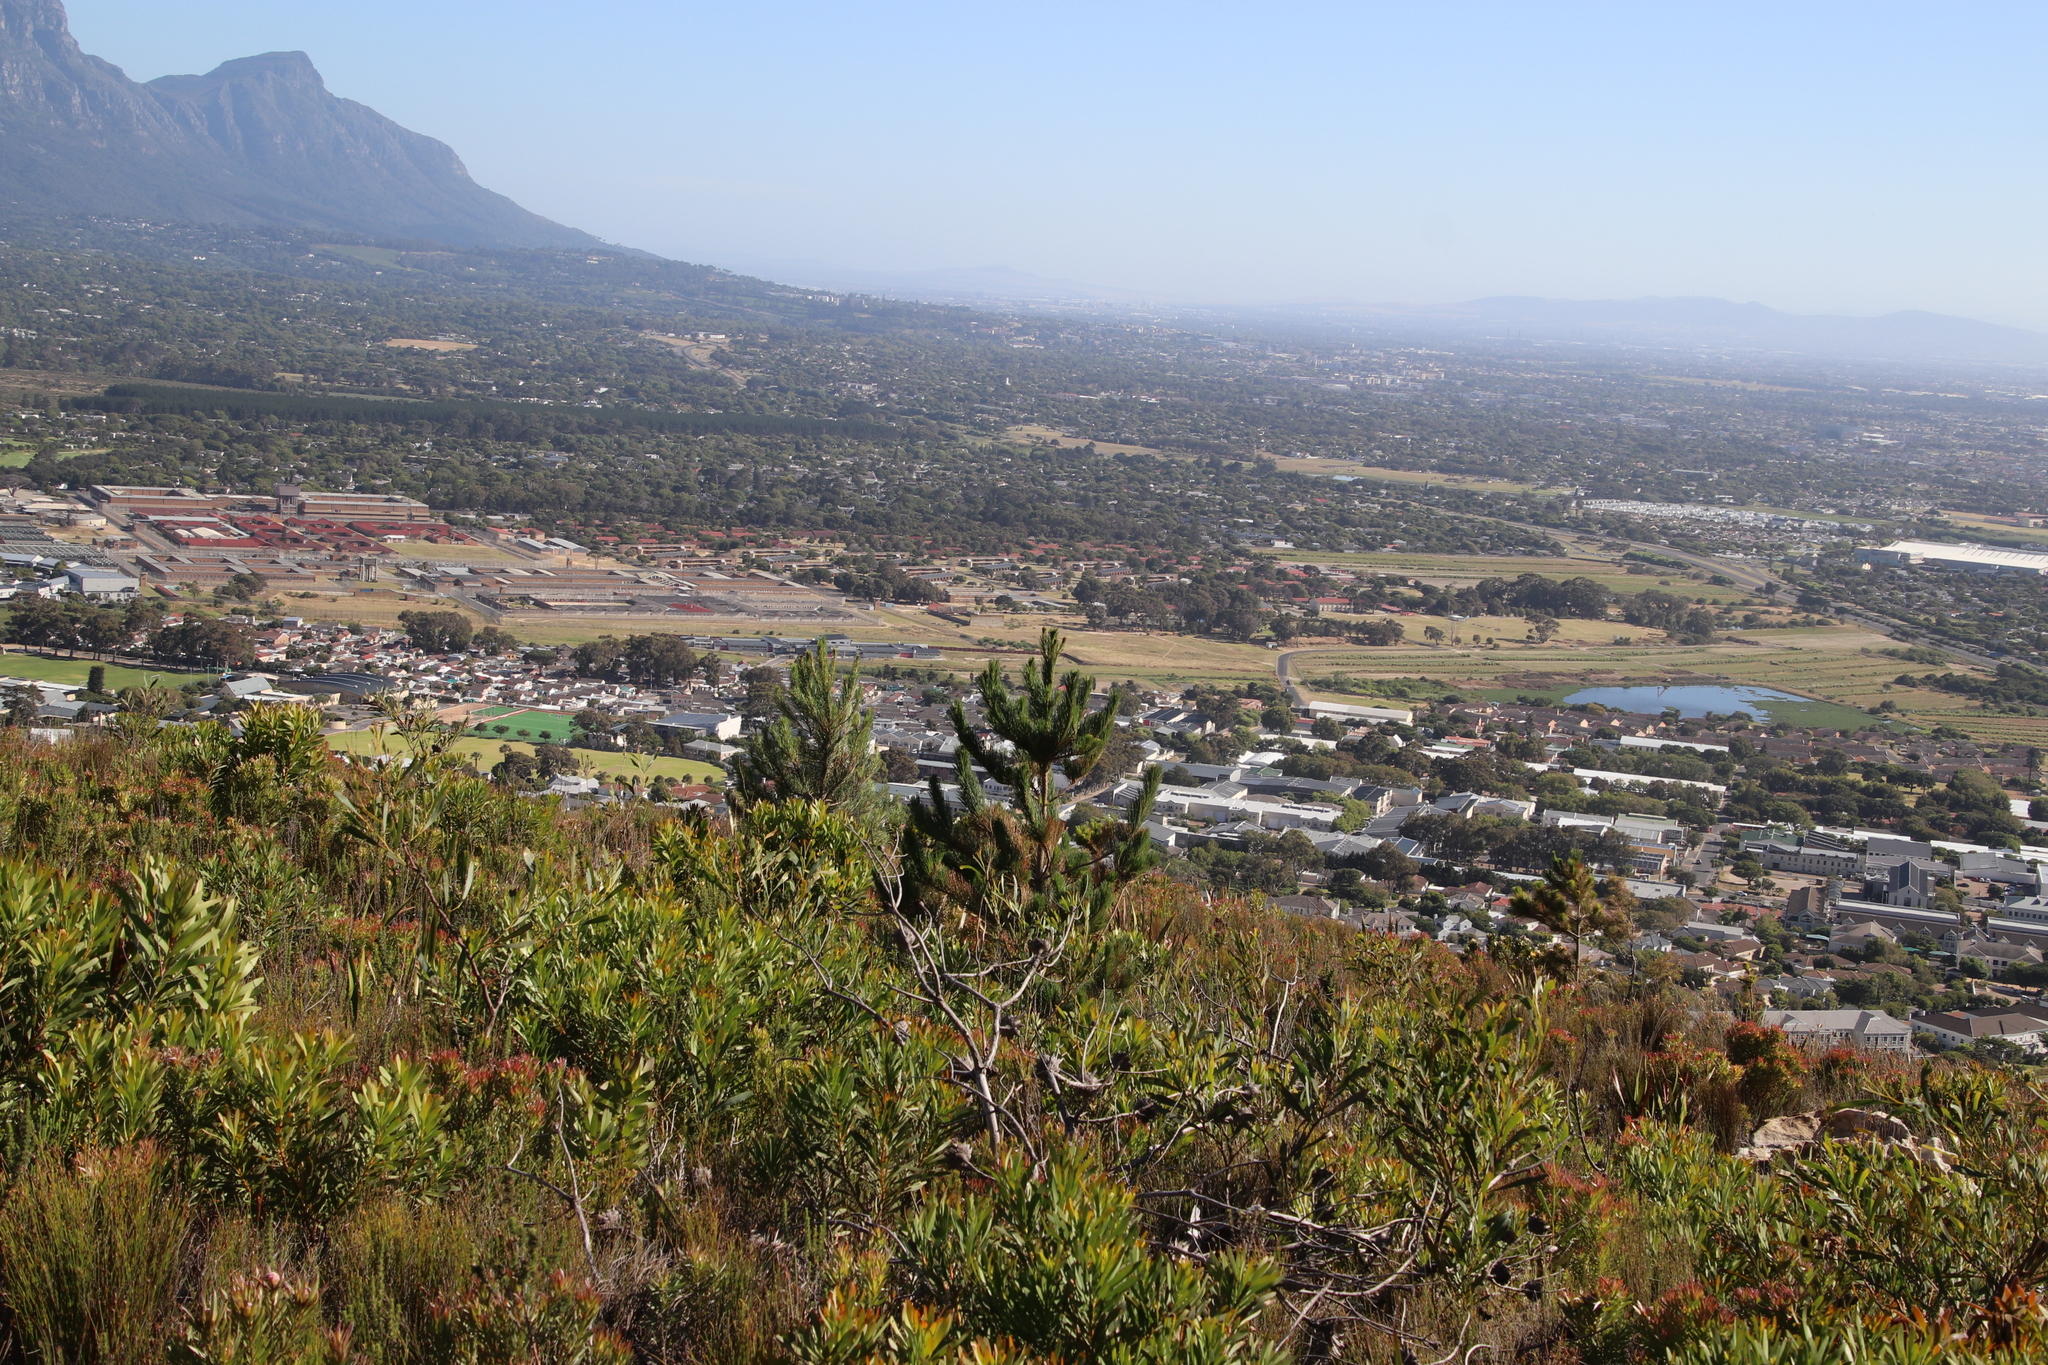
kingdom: Plantae
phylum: Tracheophyta
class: Pinopsida
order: Pinales
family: Pinaceae
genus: Pinus
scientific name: Pinus radiata
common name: Monterey pine
